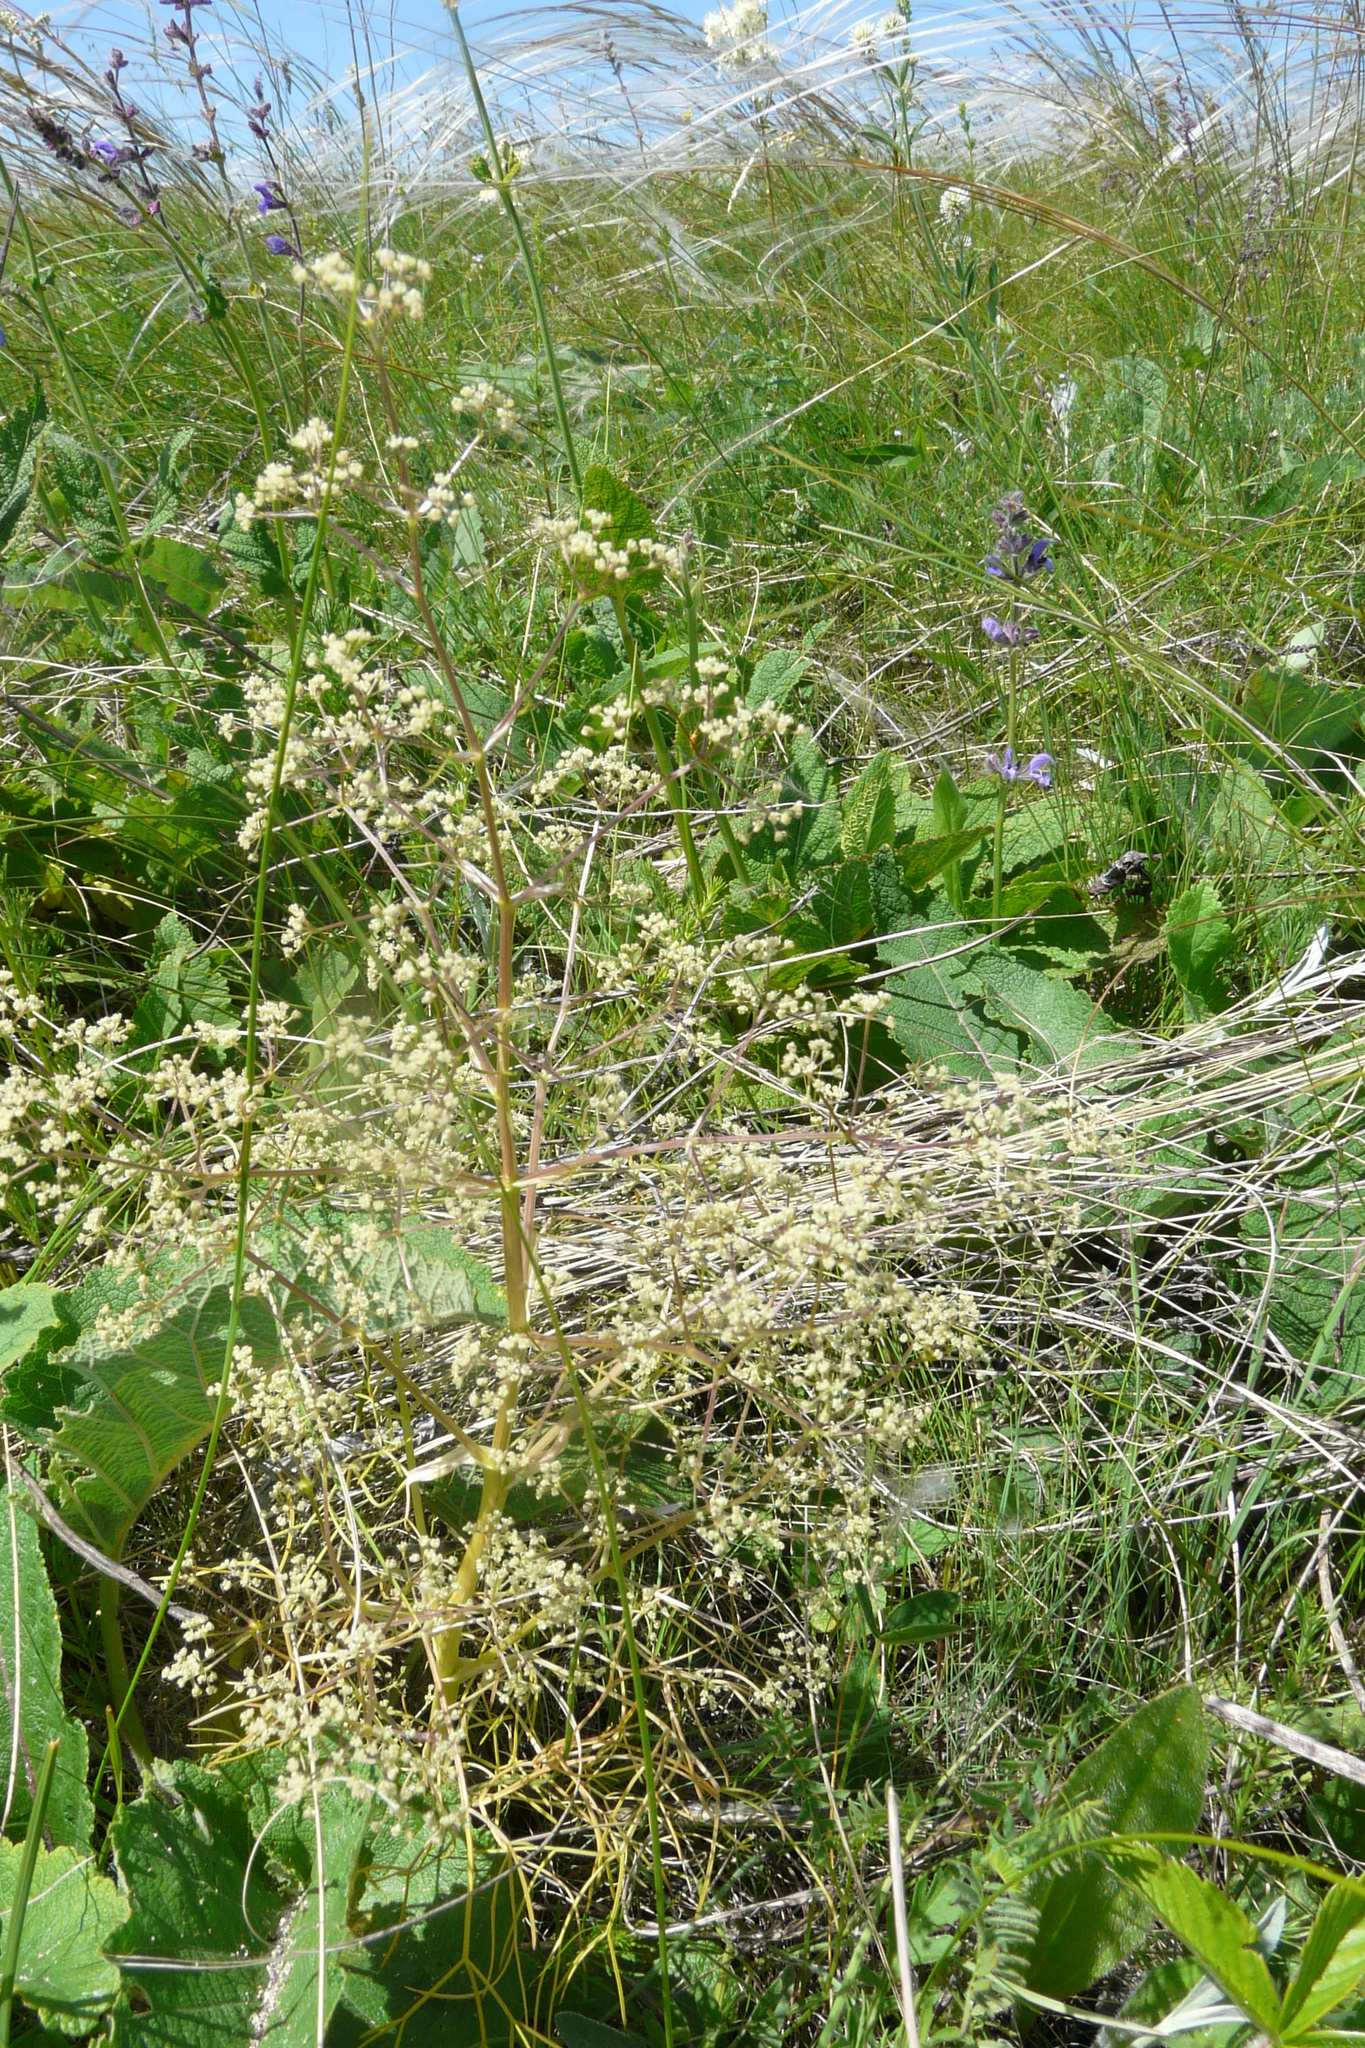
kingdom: Plantae
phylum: Tracheophyta
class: Magnoliopsida
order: Apiales
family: Apiaceae
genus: Trinia
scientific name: Trinia multicaulis
